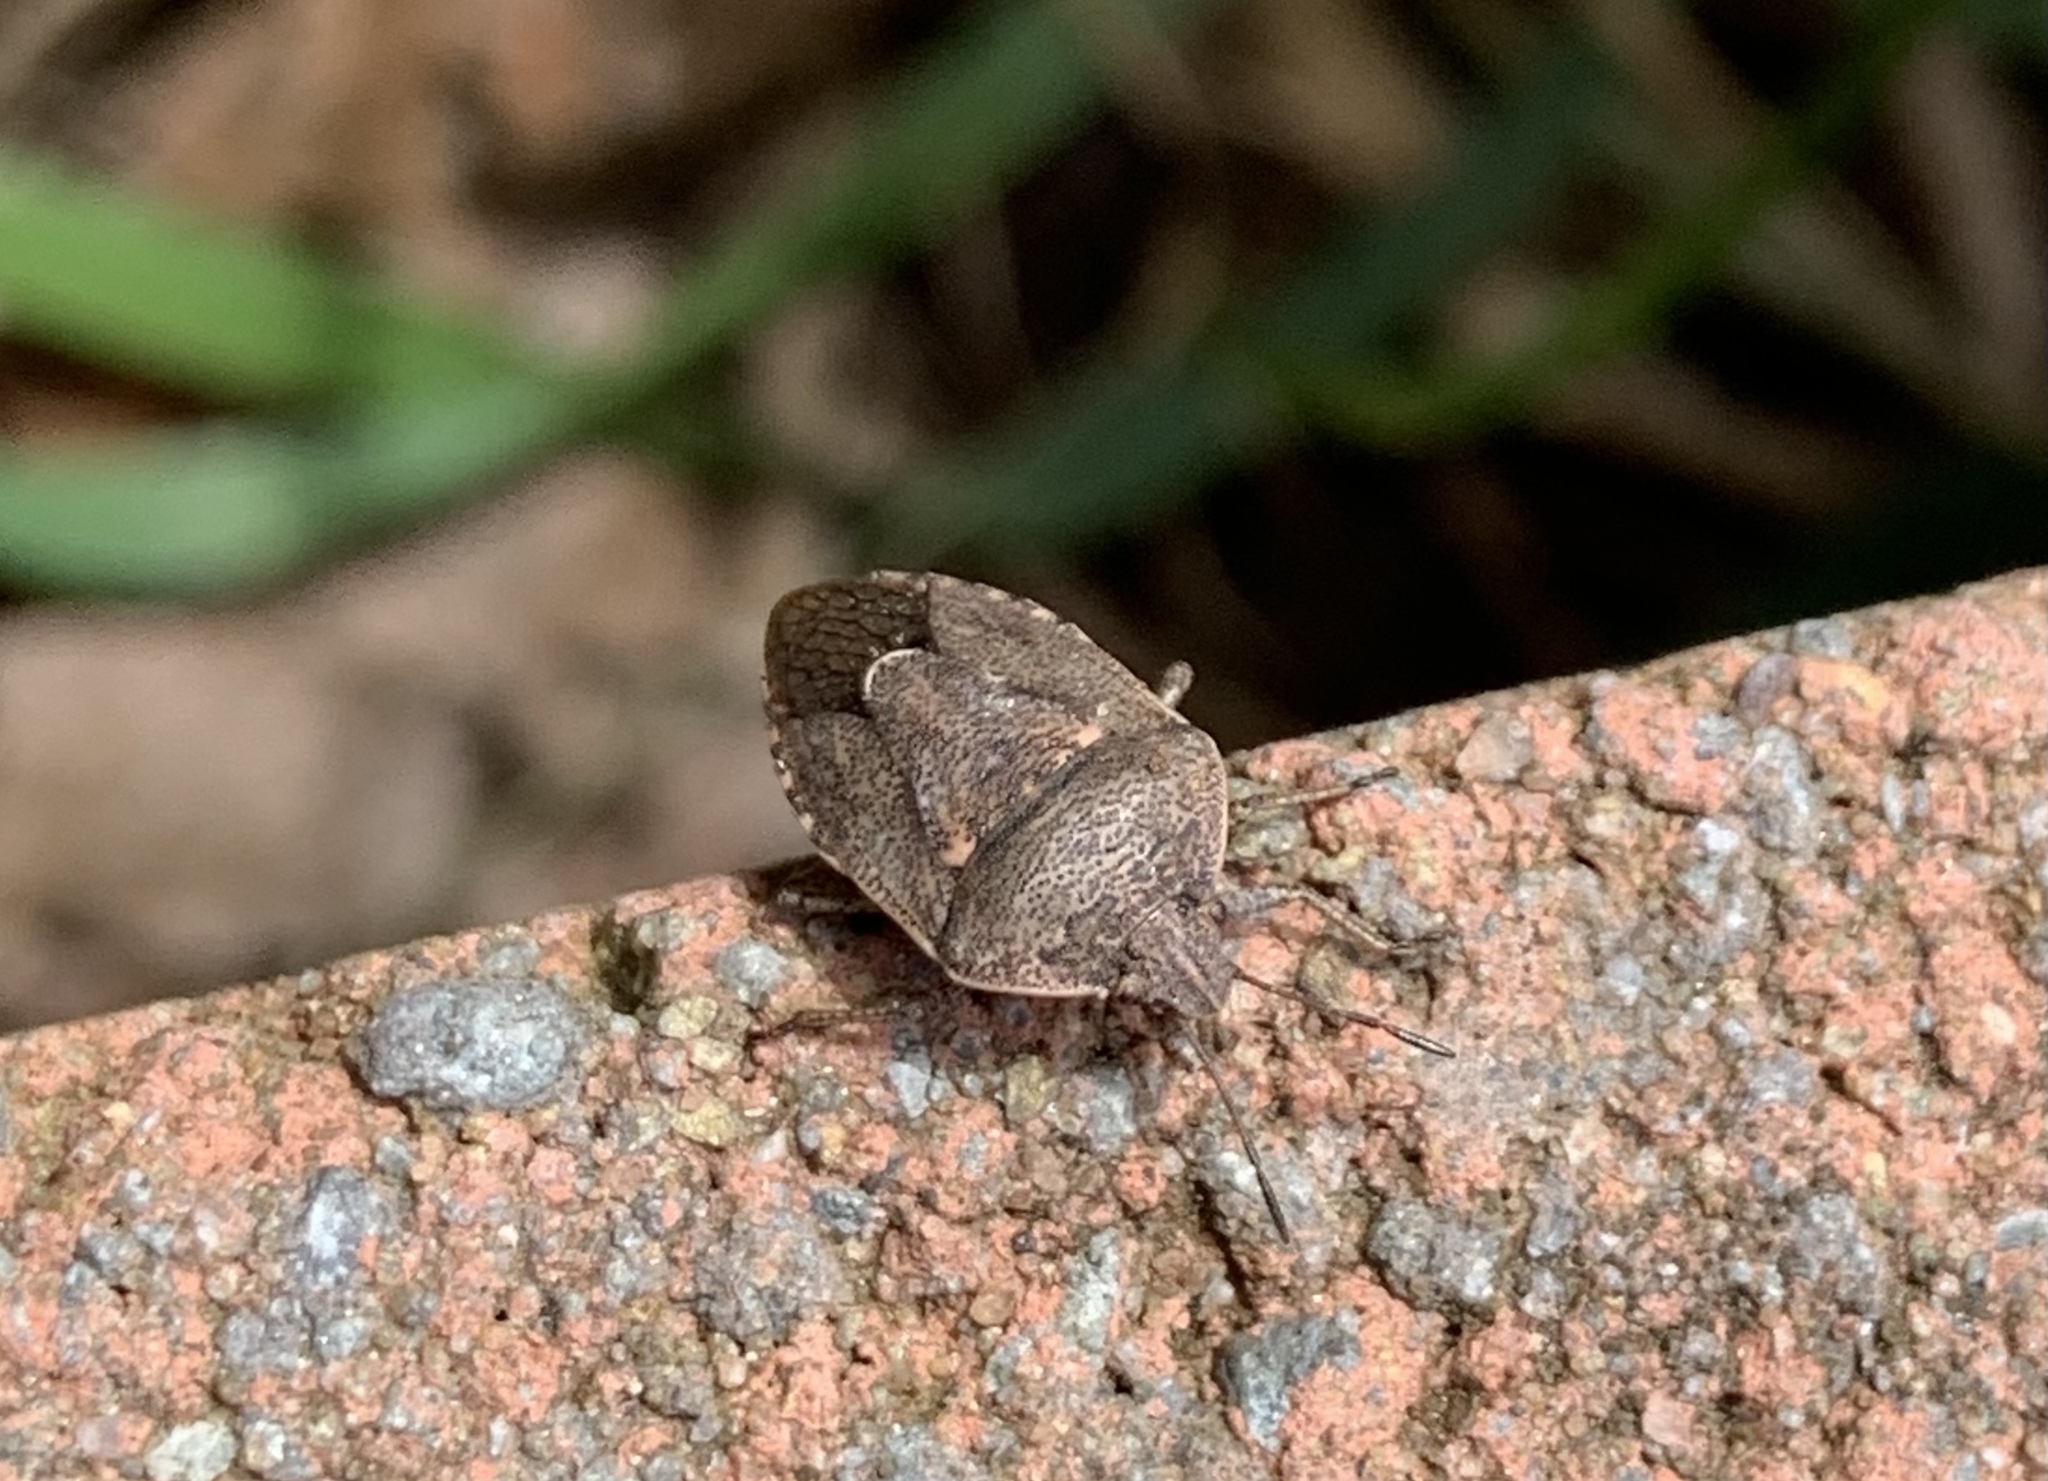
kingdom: Animalia
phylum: Arthropoda
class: Insecta
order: Hemiptera
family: Pentatomidae
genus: Hymenarcys
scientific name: Hymenarcys nervosa
